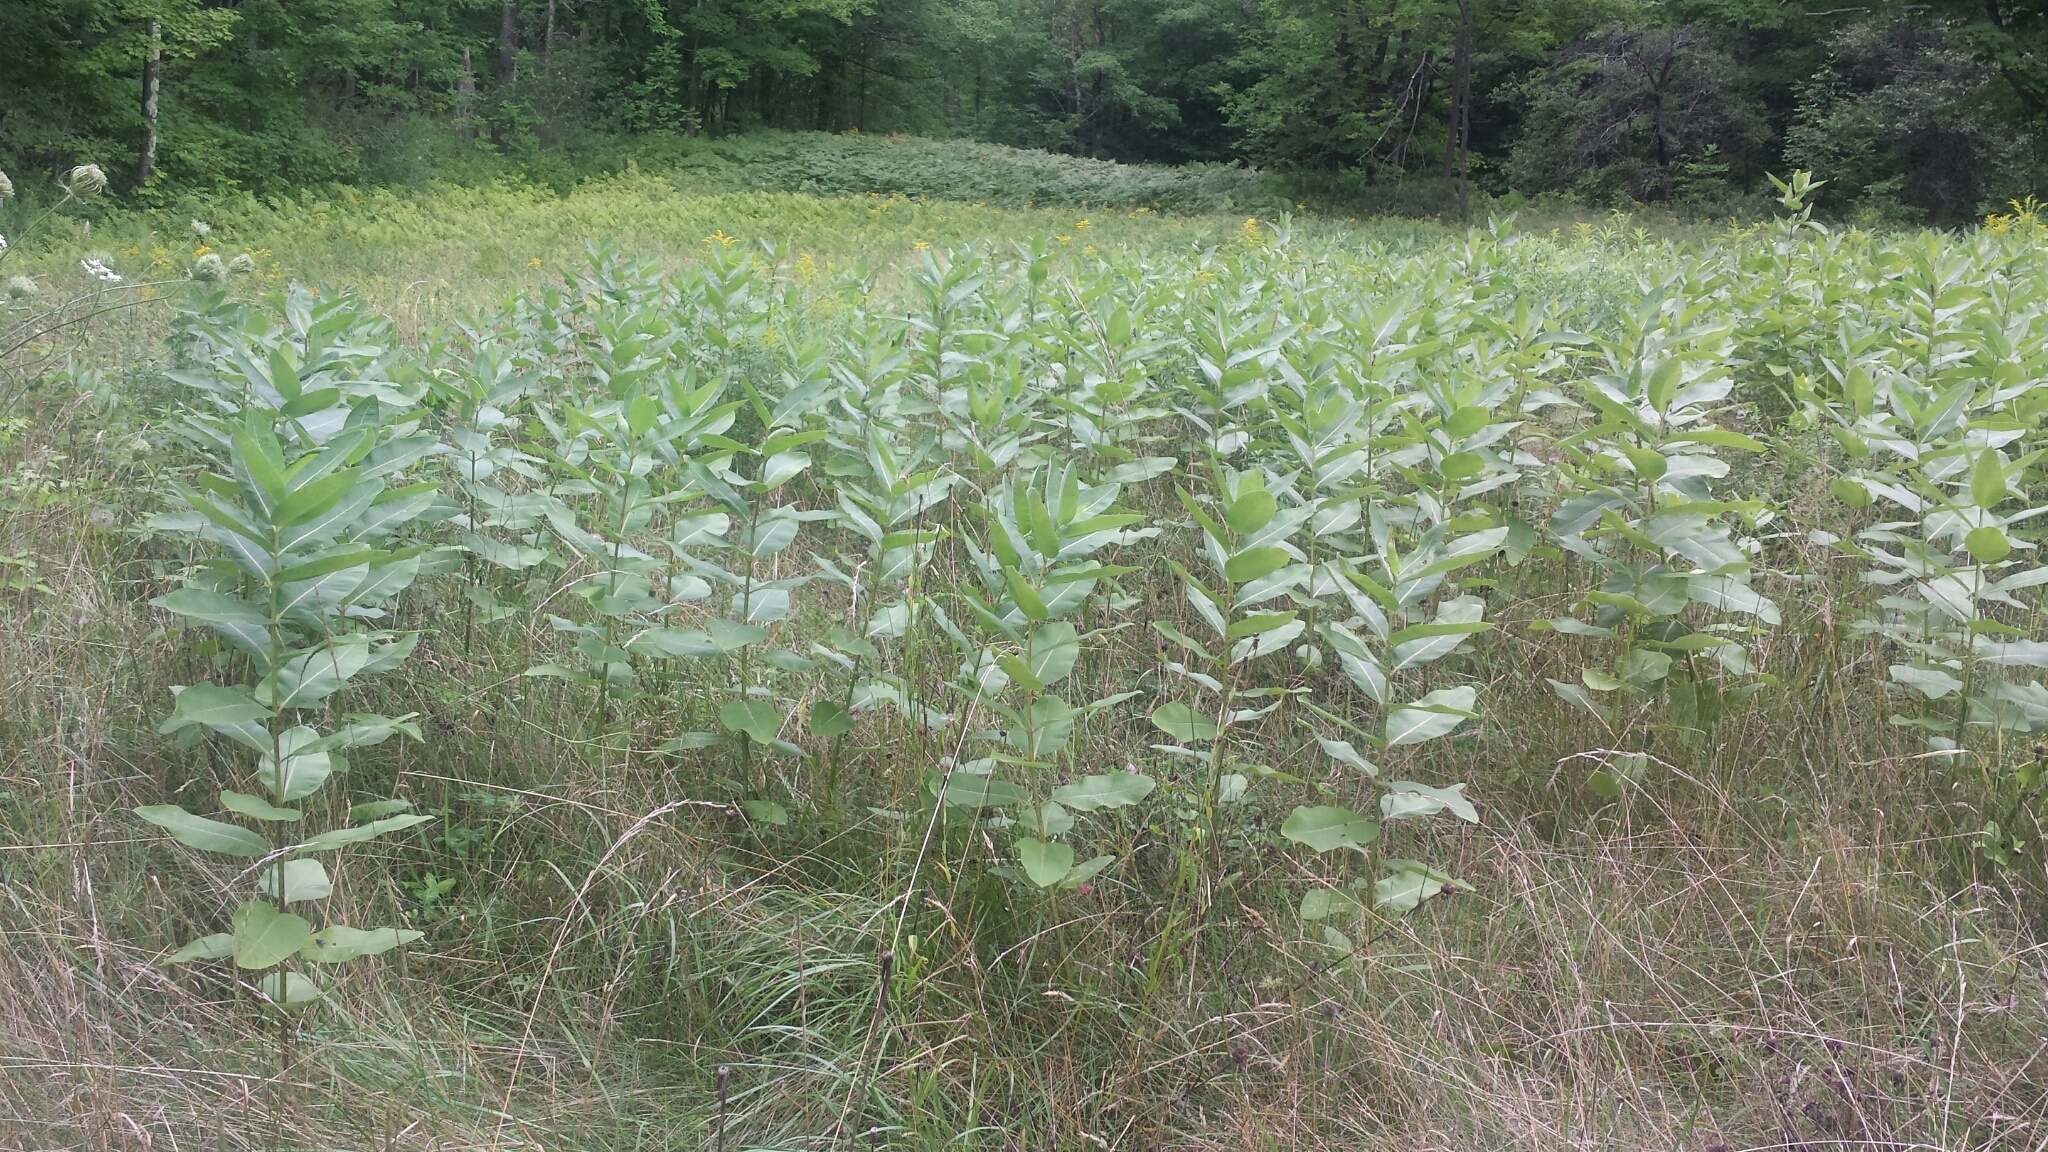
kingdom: Plantae
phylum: Tracheophyta
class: Magnoliopsida
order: Gentianales
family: Apocynaceae
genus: Asclepias
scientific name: Asclepias syriaca
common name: Common milkweed
